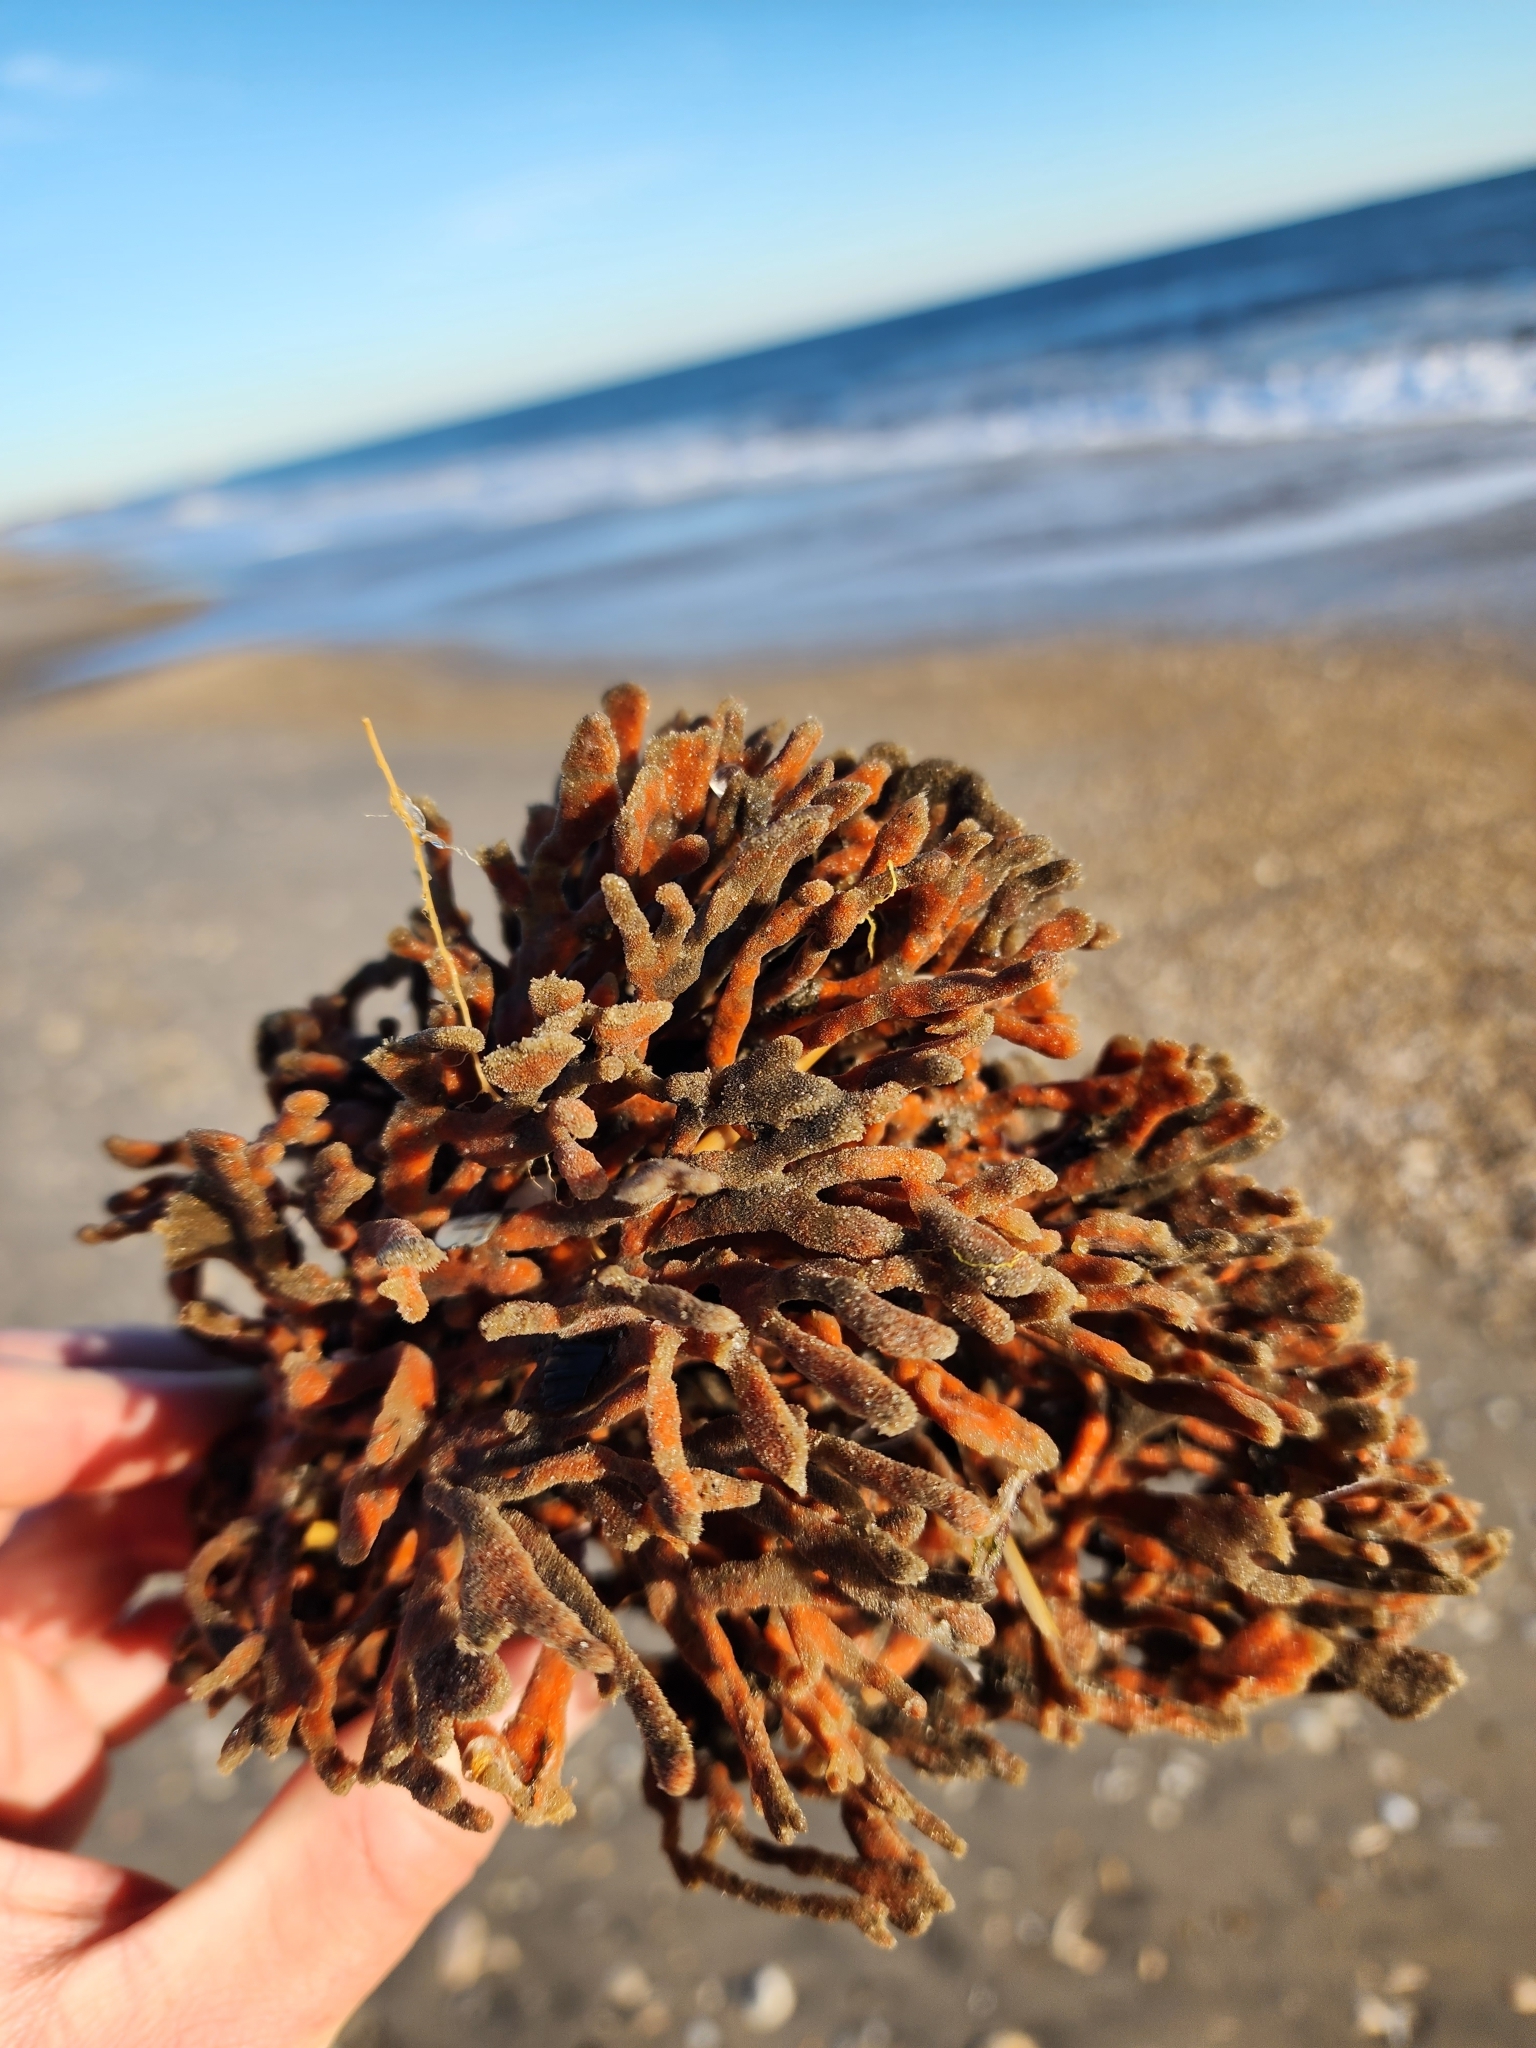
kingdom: Animalia
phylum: Porifera
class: Demospongiae
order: Poecilosclerida
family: Microcionidae
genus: Clathria
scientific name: Clathria prolifera
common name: Red beard sponge
